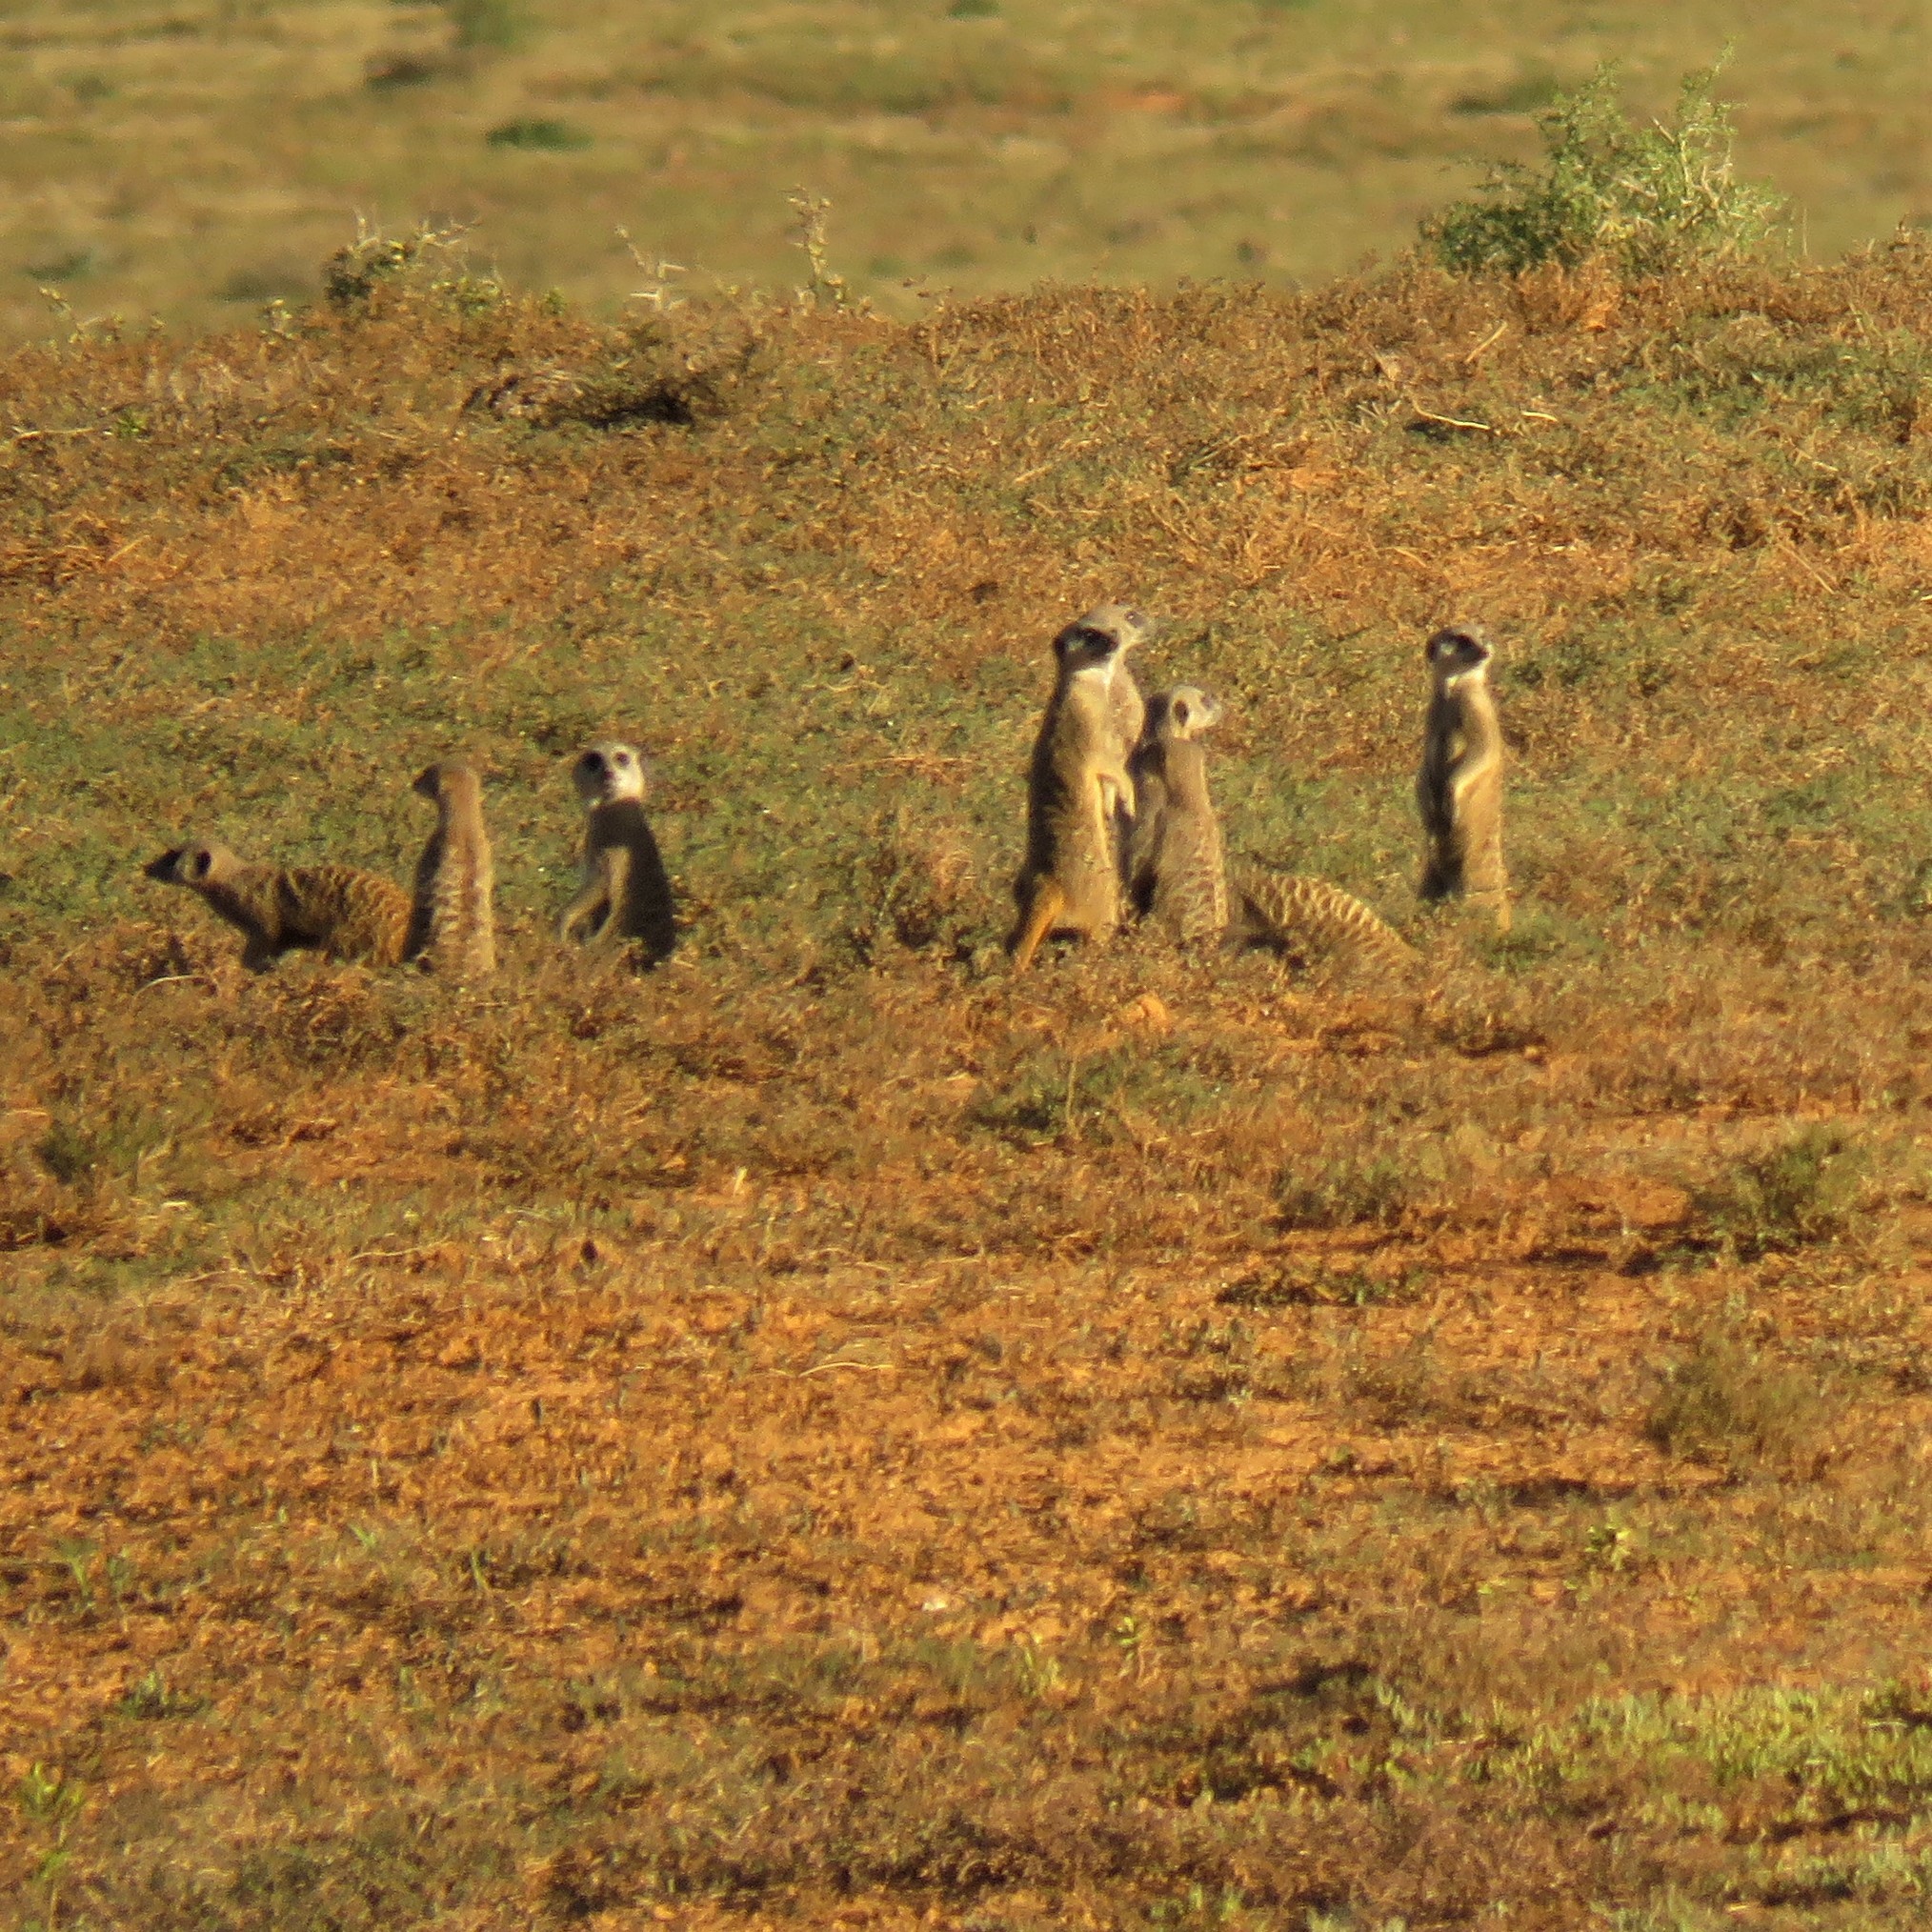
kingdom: Animalia
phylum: Chordata
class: Mammalia
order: Carnivora
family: Herpestidae
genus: Suricata
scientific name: Suricata suricatta
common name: Meerkat
